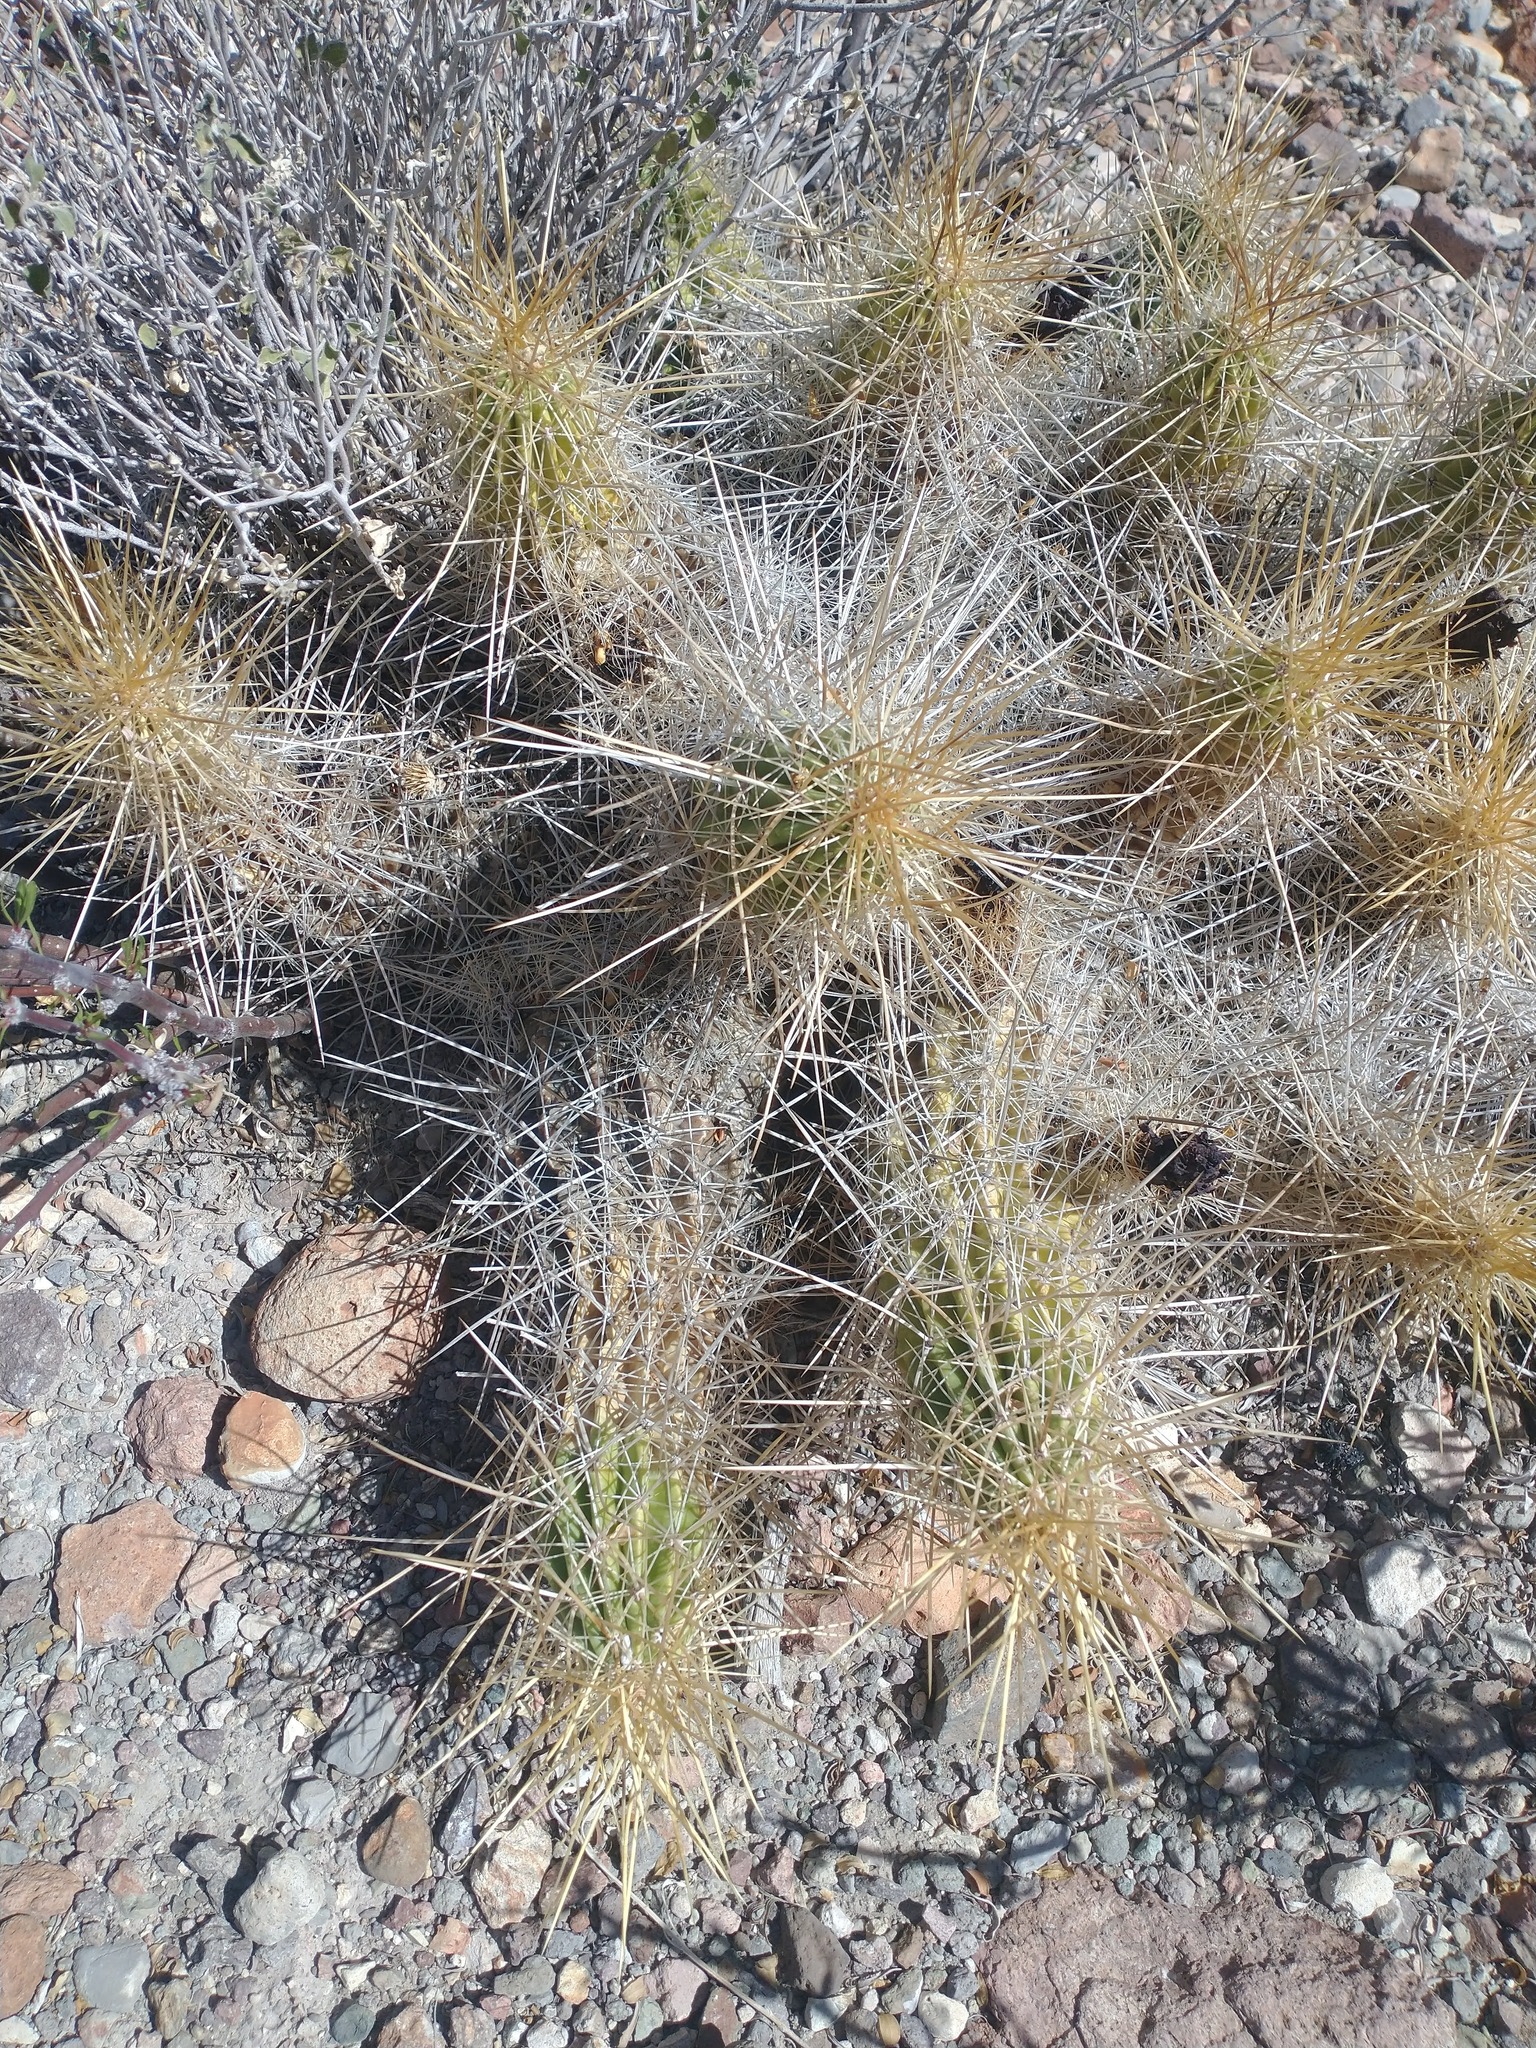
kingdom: Plantae
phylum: Tracheophyta
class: Magnoliopsida
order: Caryophyllales
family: Cactaceae
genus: Echinocereus
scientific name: Echinocereus stramineus
